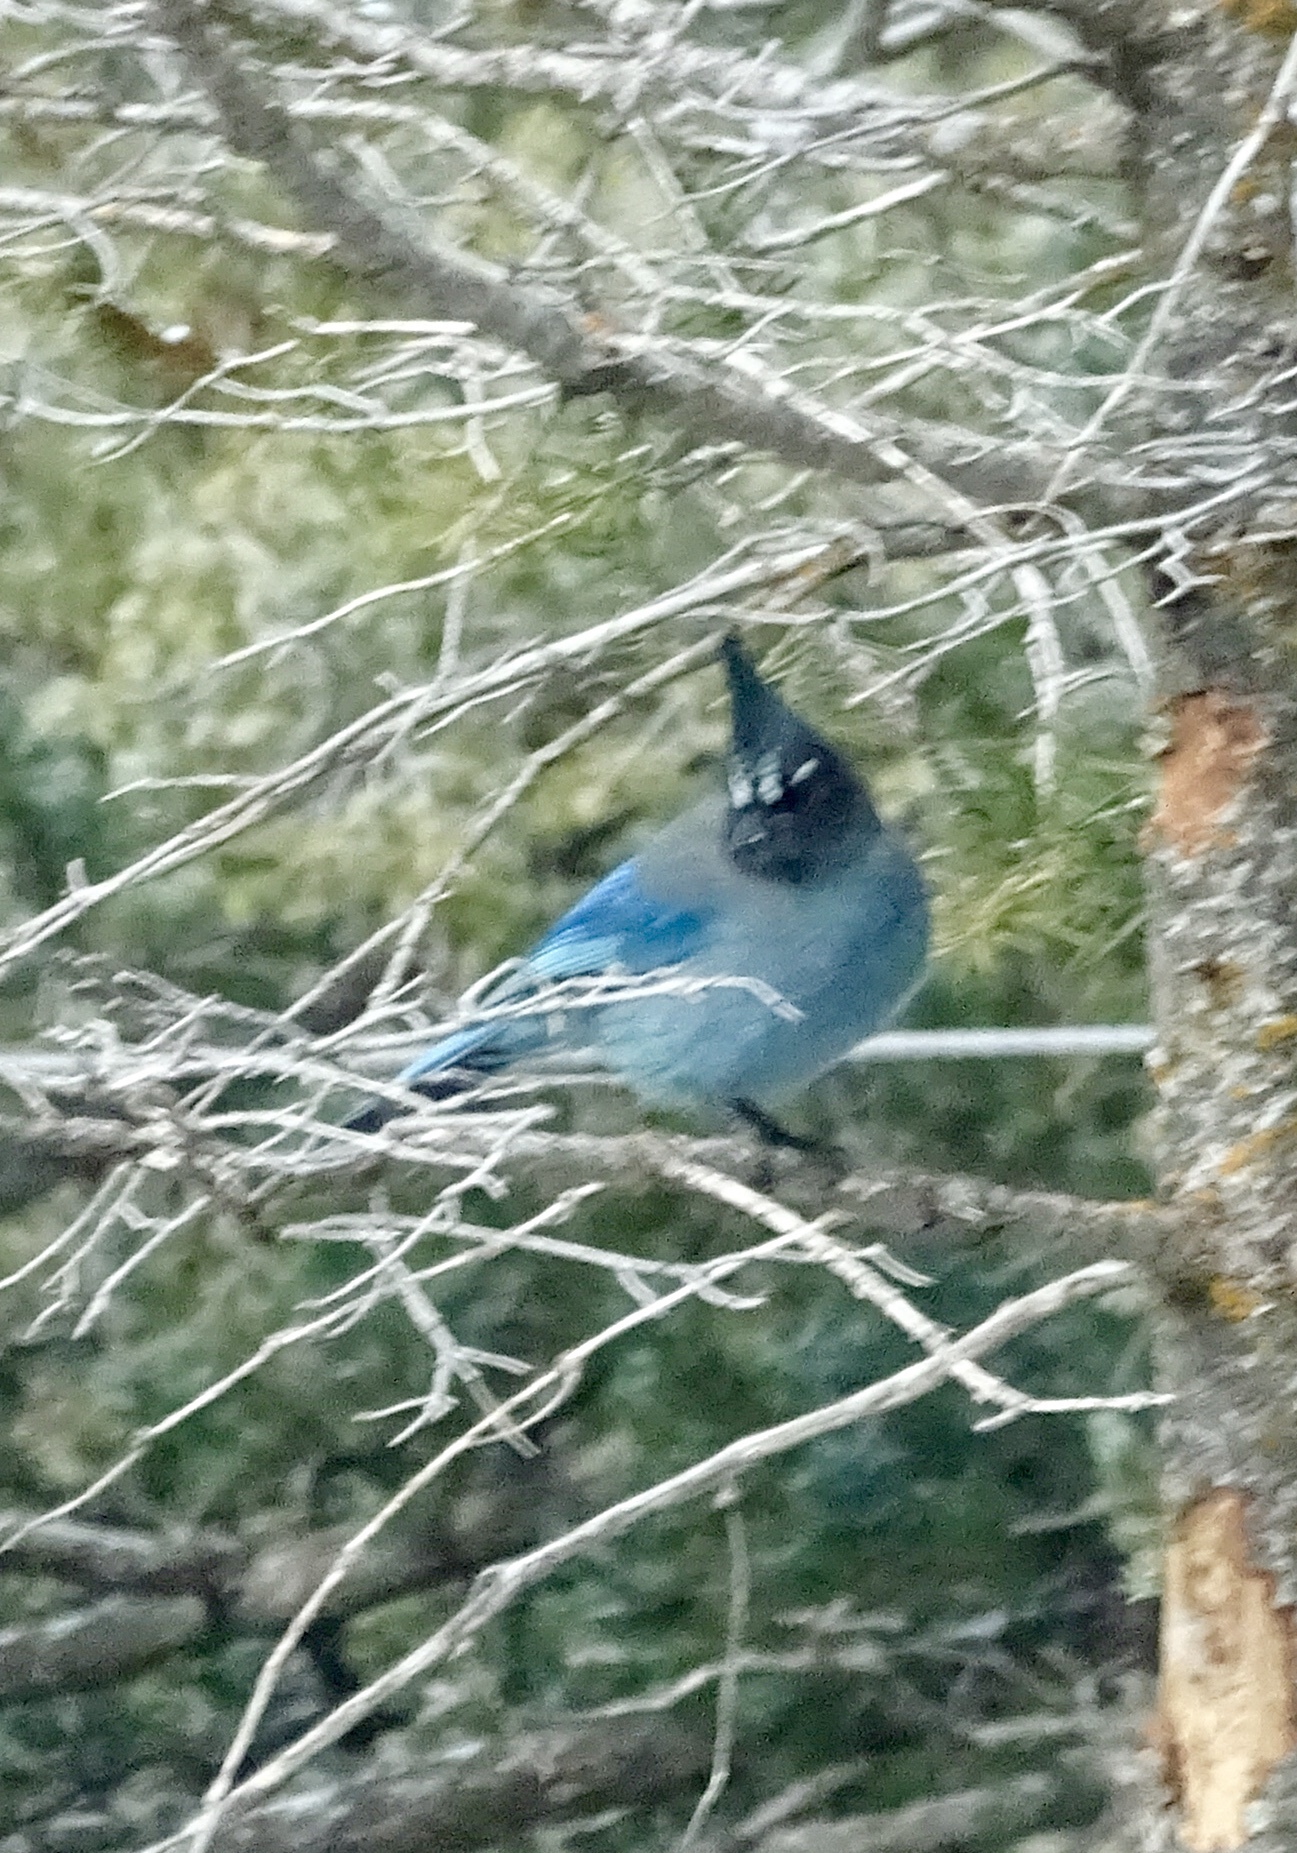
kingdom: Animalia
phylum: Chordata
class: Aves
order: Passeriformes
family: Corvidae
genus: Cyanocitta
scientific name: Cyanocitta stelleri
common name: Steller's jay
